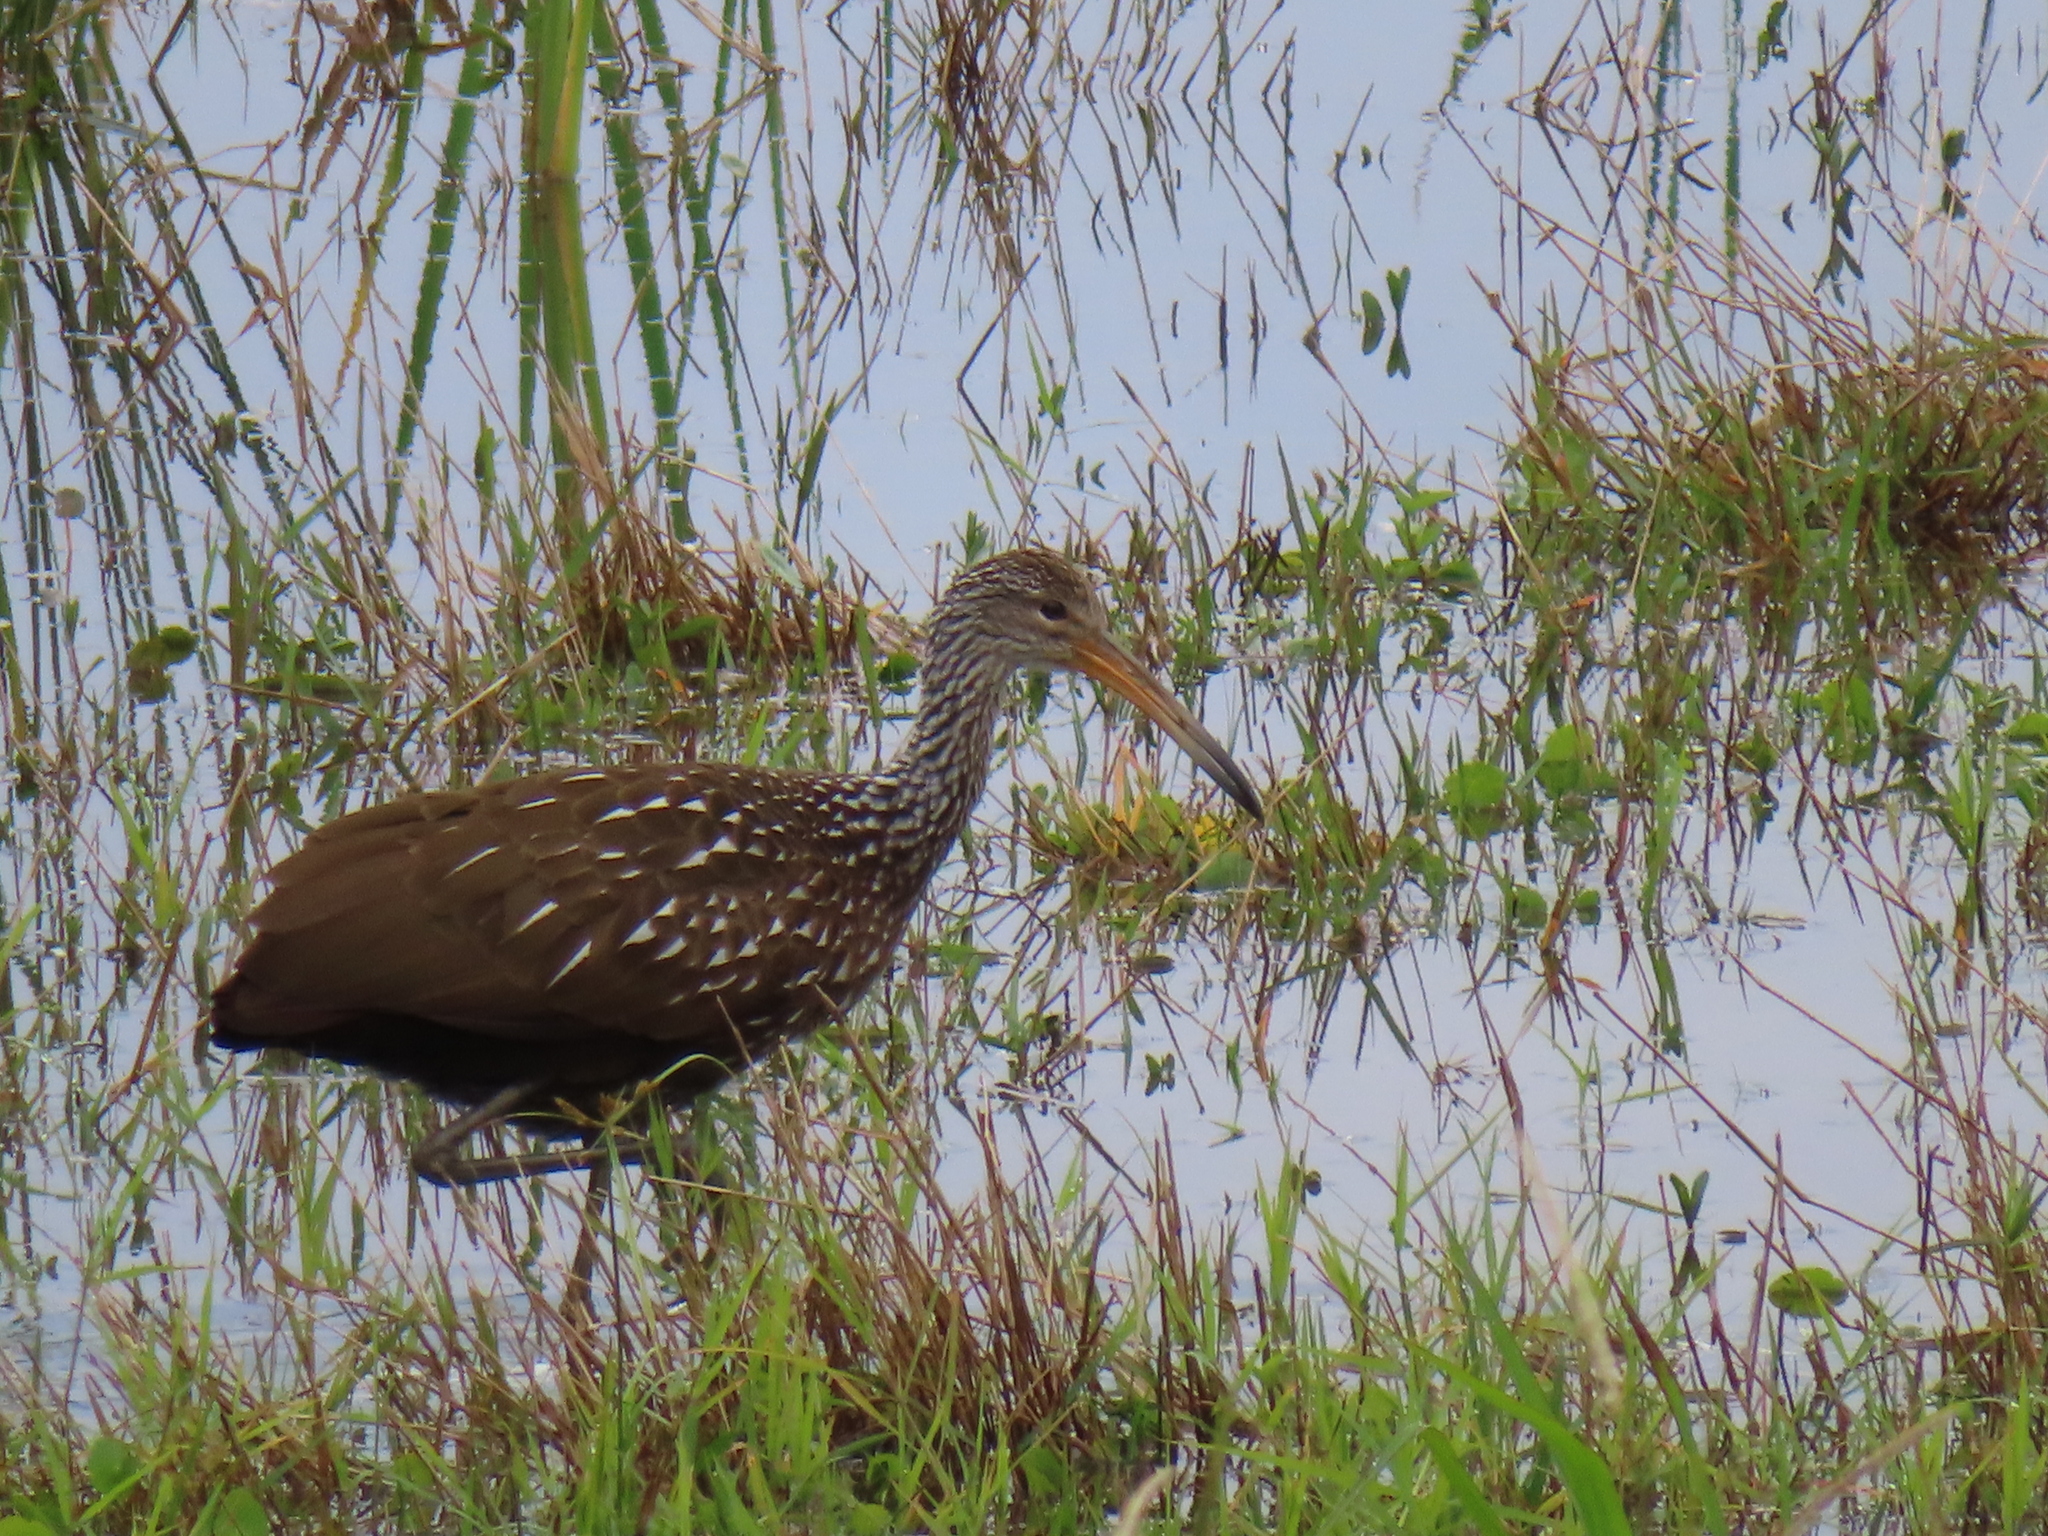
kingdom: Animalia
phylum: Chordata
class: Aves
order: Gruiformes
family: Aramidae
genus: Aramus
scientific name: Aramus guarauna
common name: Limpkin
